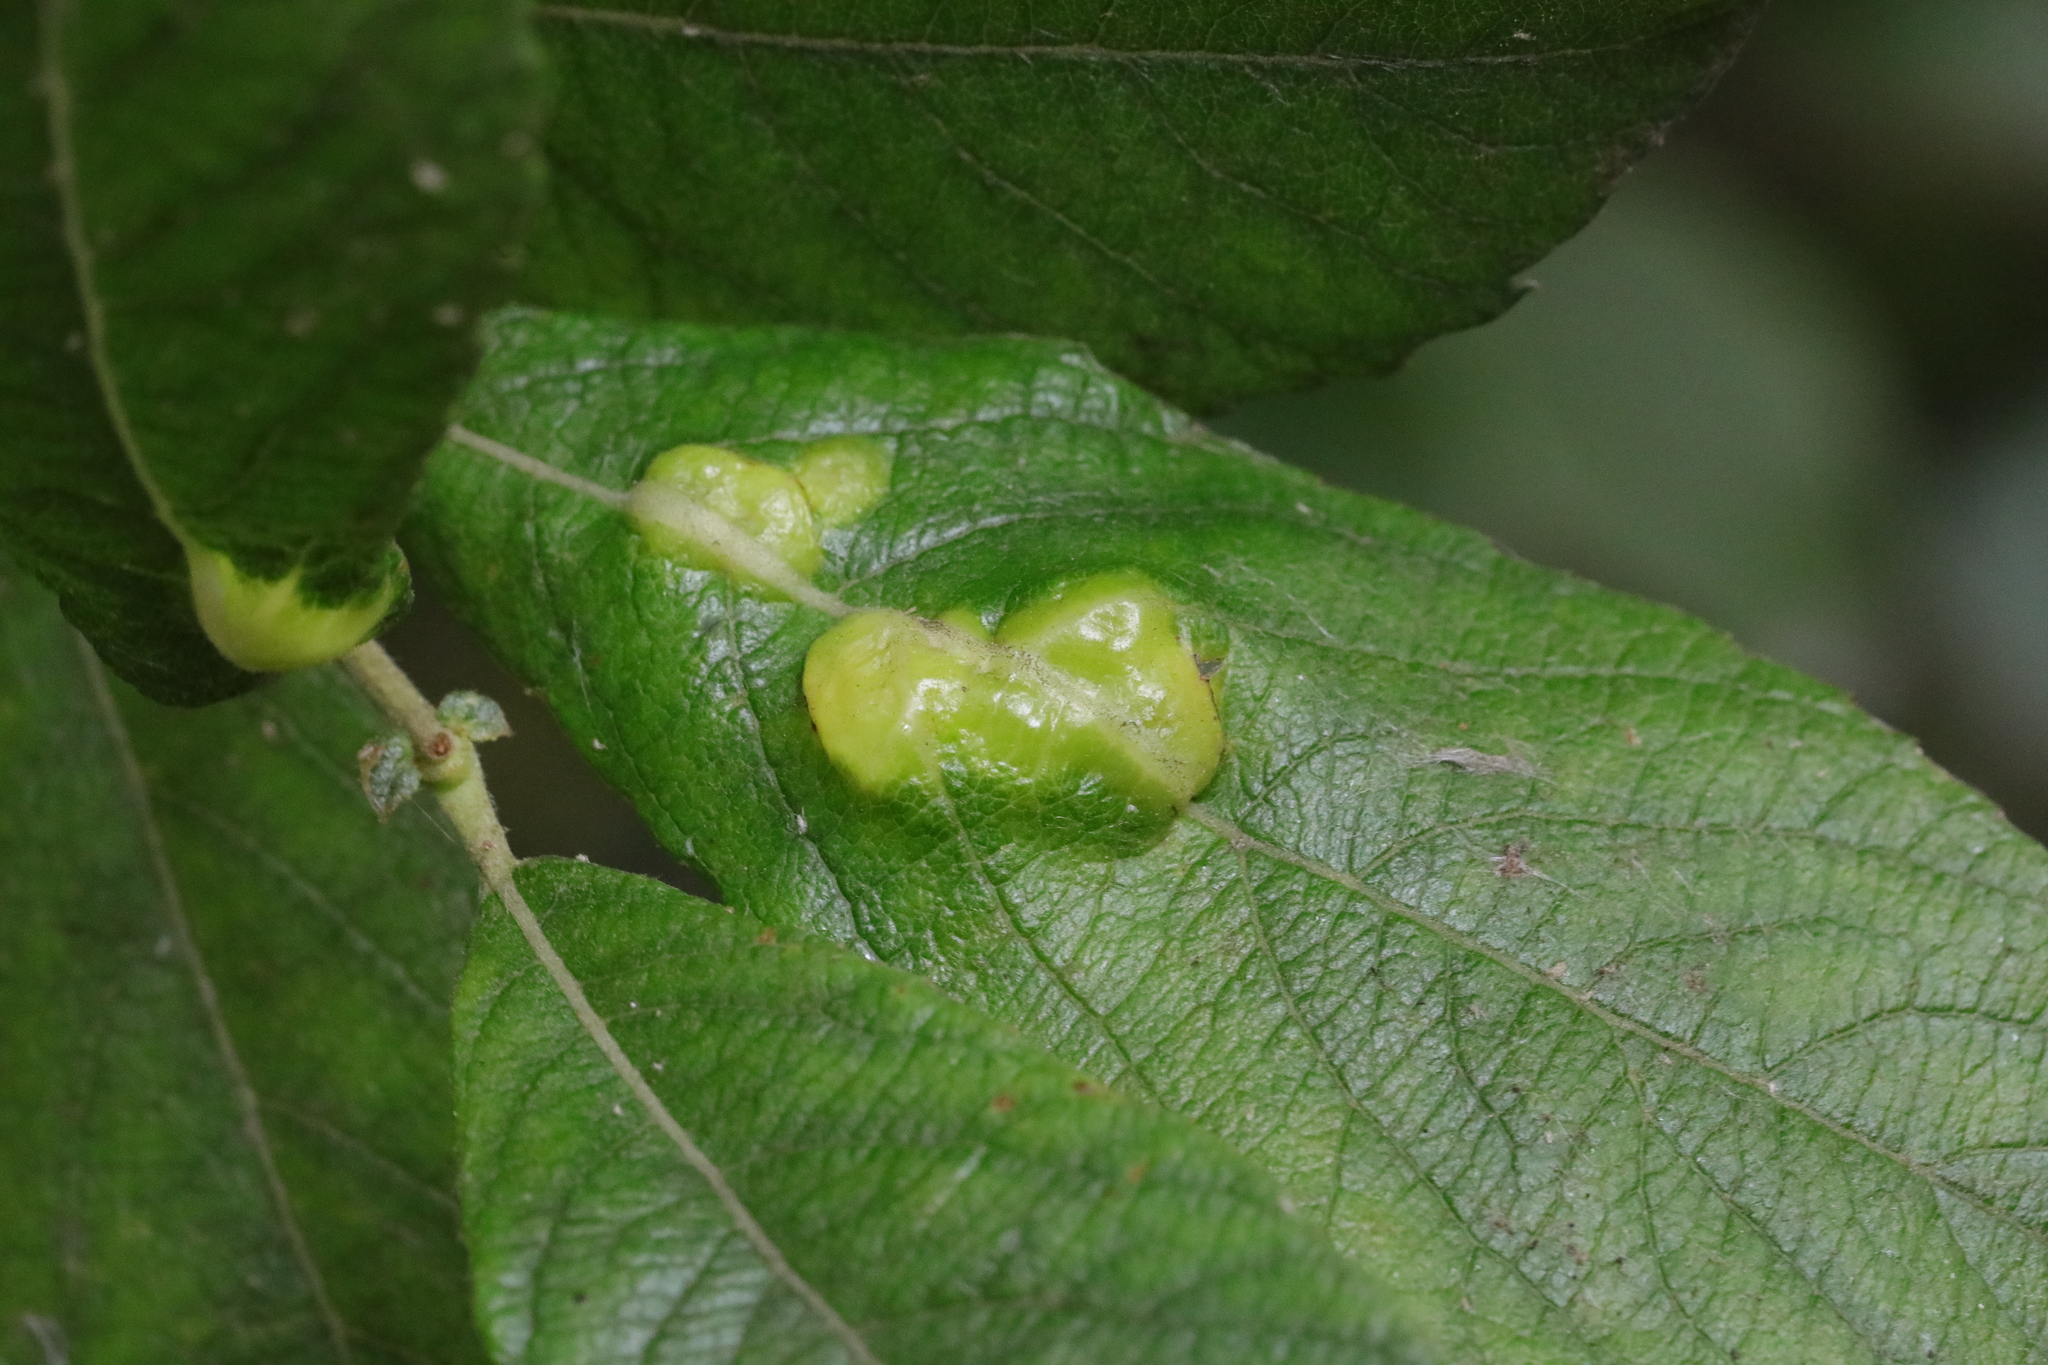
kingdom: Animalia
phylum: Arthropoda
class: Insecta
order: Diptera
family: Cecidomyiidae
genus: Iteomyia
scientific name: Iteomyia major
